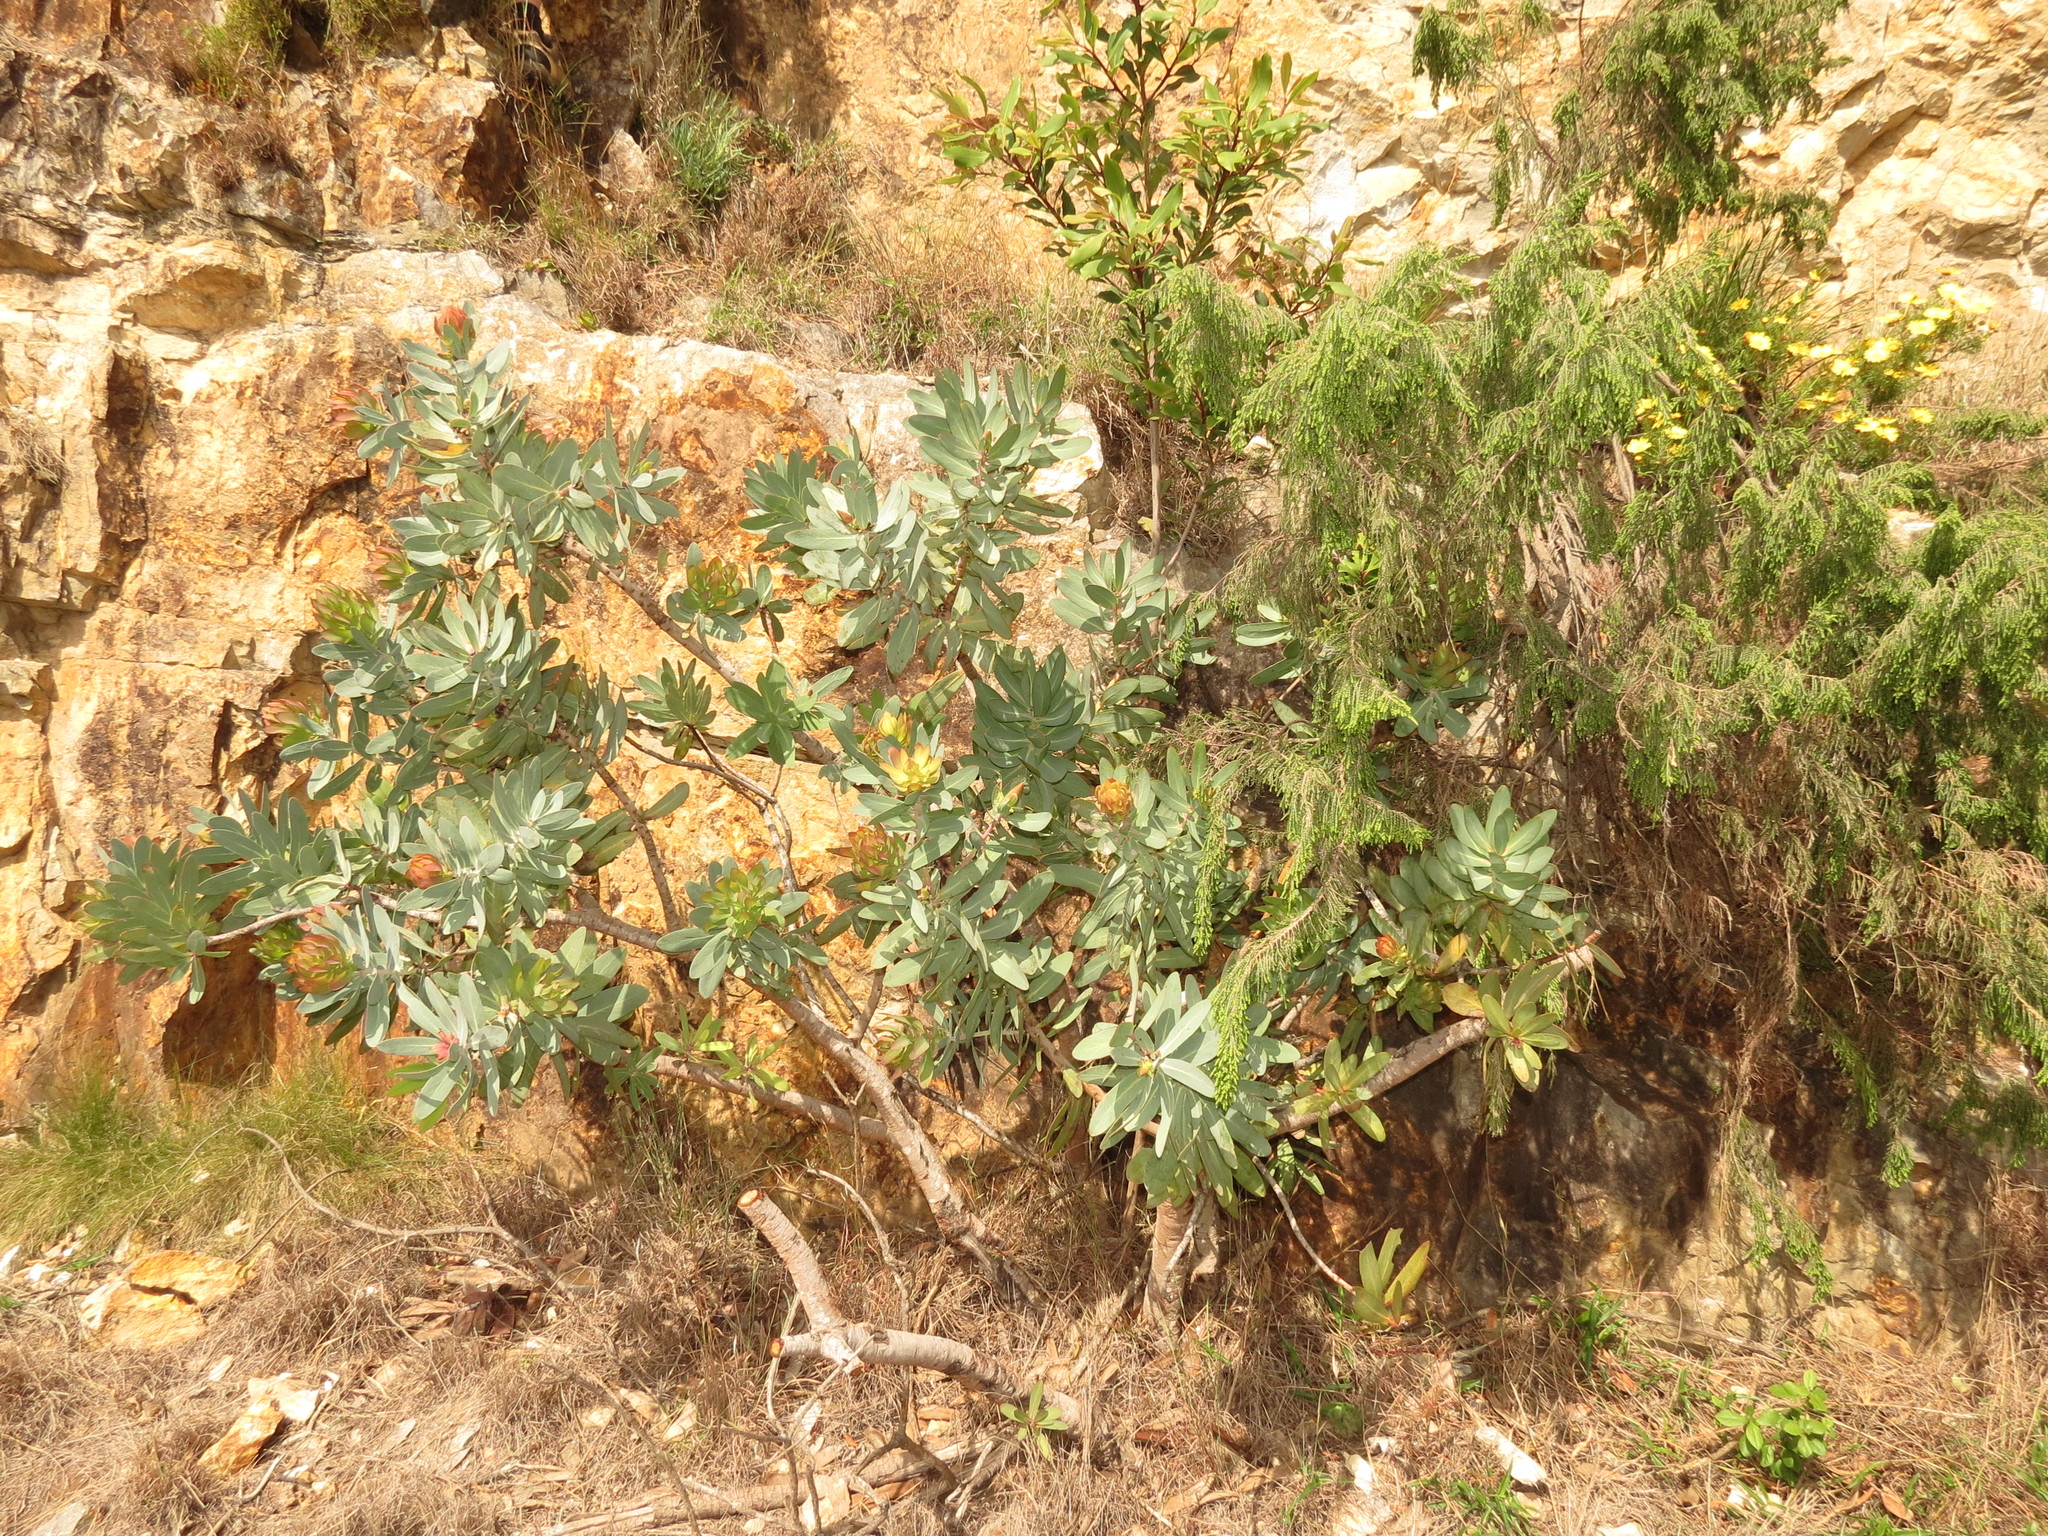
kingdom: Plantae
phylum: Tracheophyta
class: Magnoliopsida
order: Proteales
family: Proteaceae
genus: Protea
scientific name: Protea nitida
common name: Tree protea
